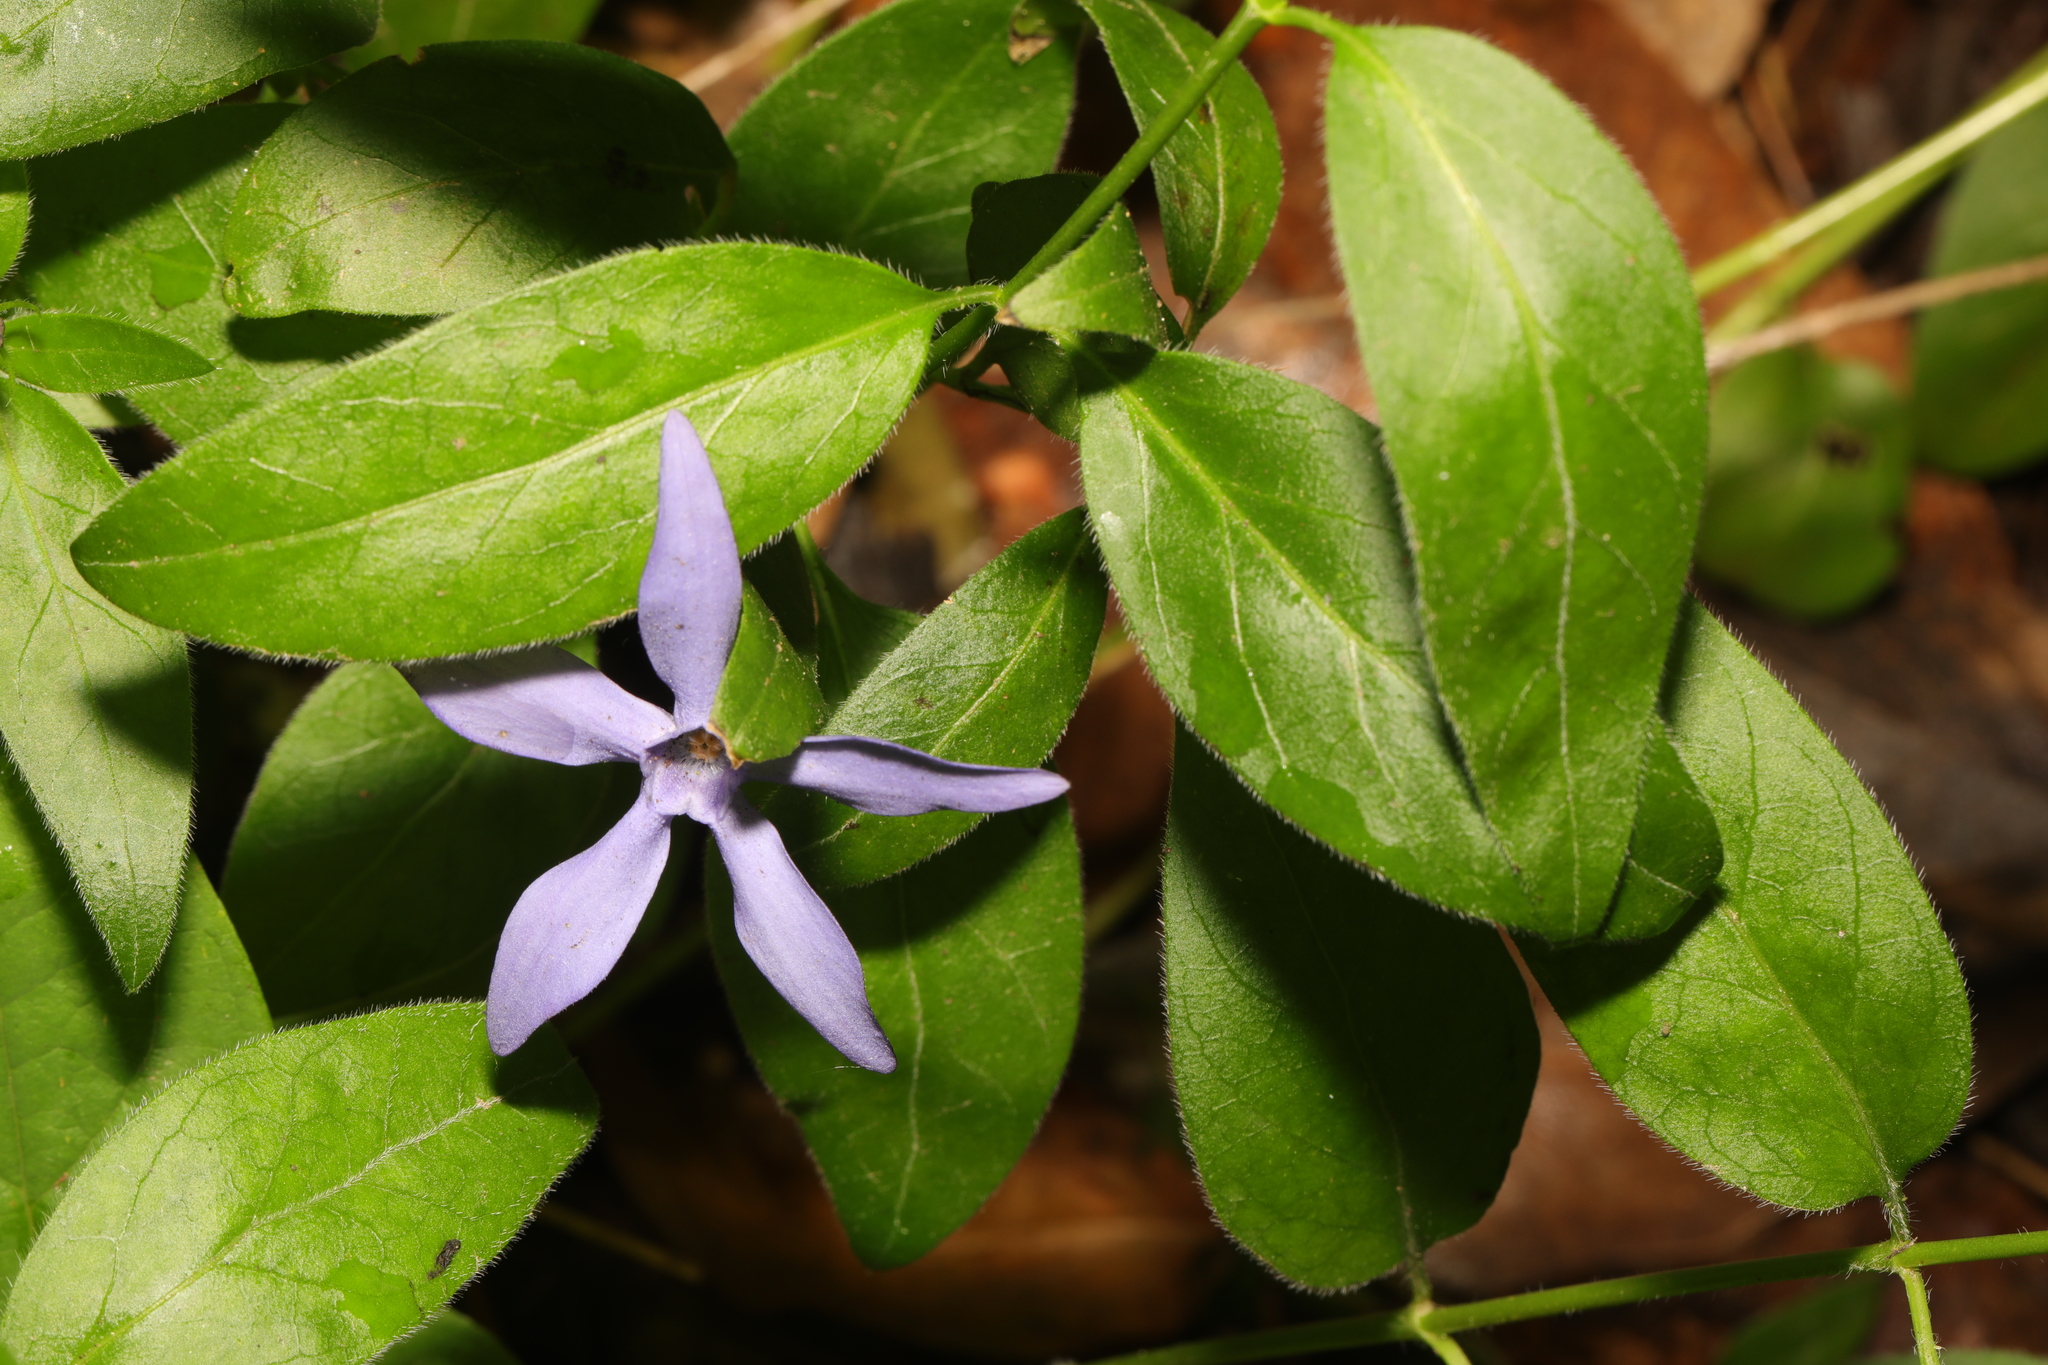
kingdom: Plantae
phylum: Tracheophyta
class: Magnoliopsida
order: Gentianales
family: Apocynaceae
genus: Vinca
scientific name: Vinca major
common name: Greater periwinkle
